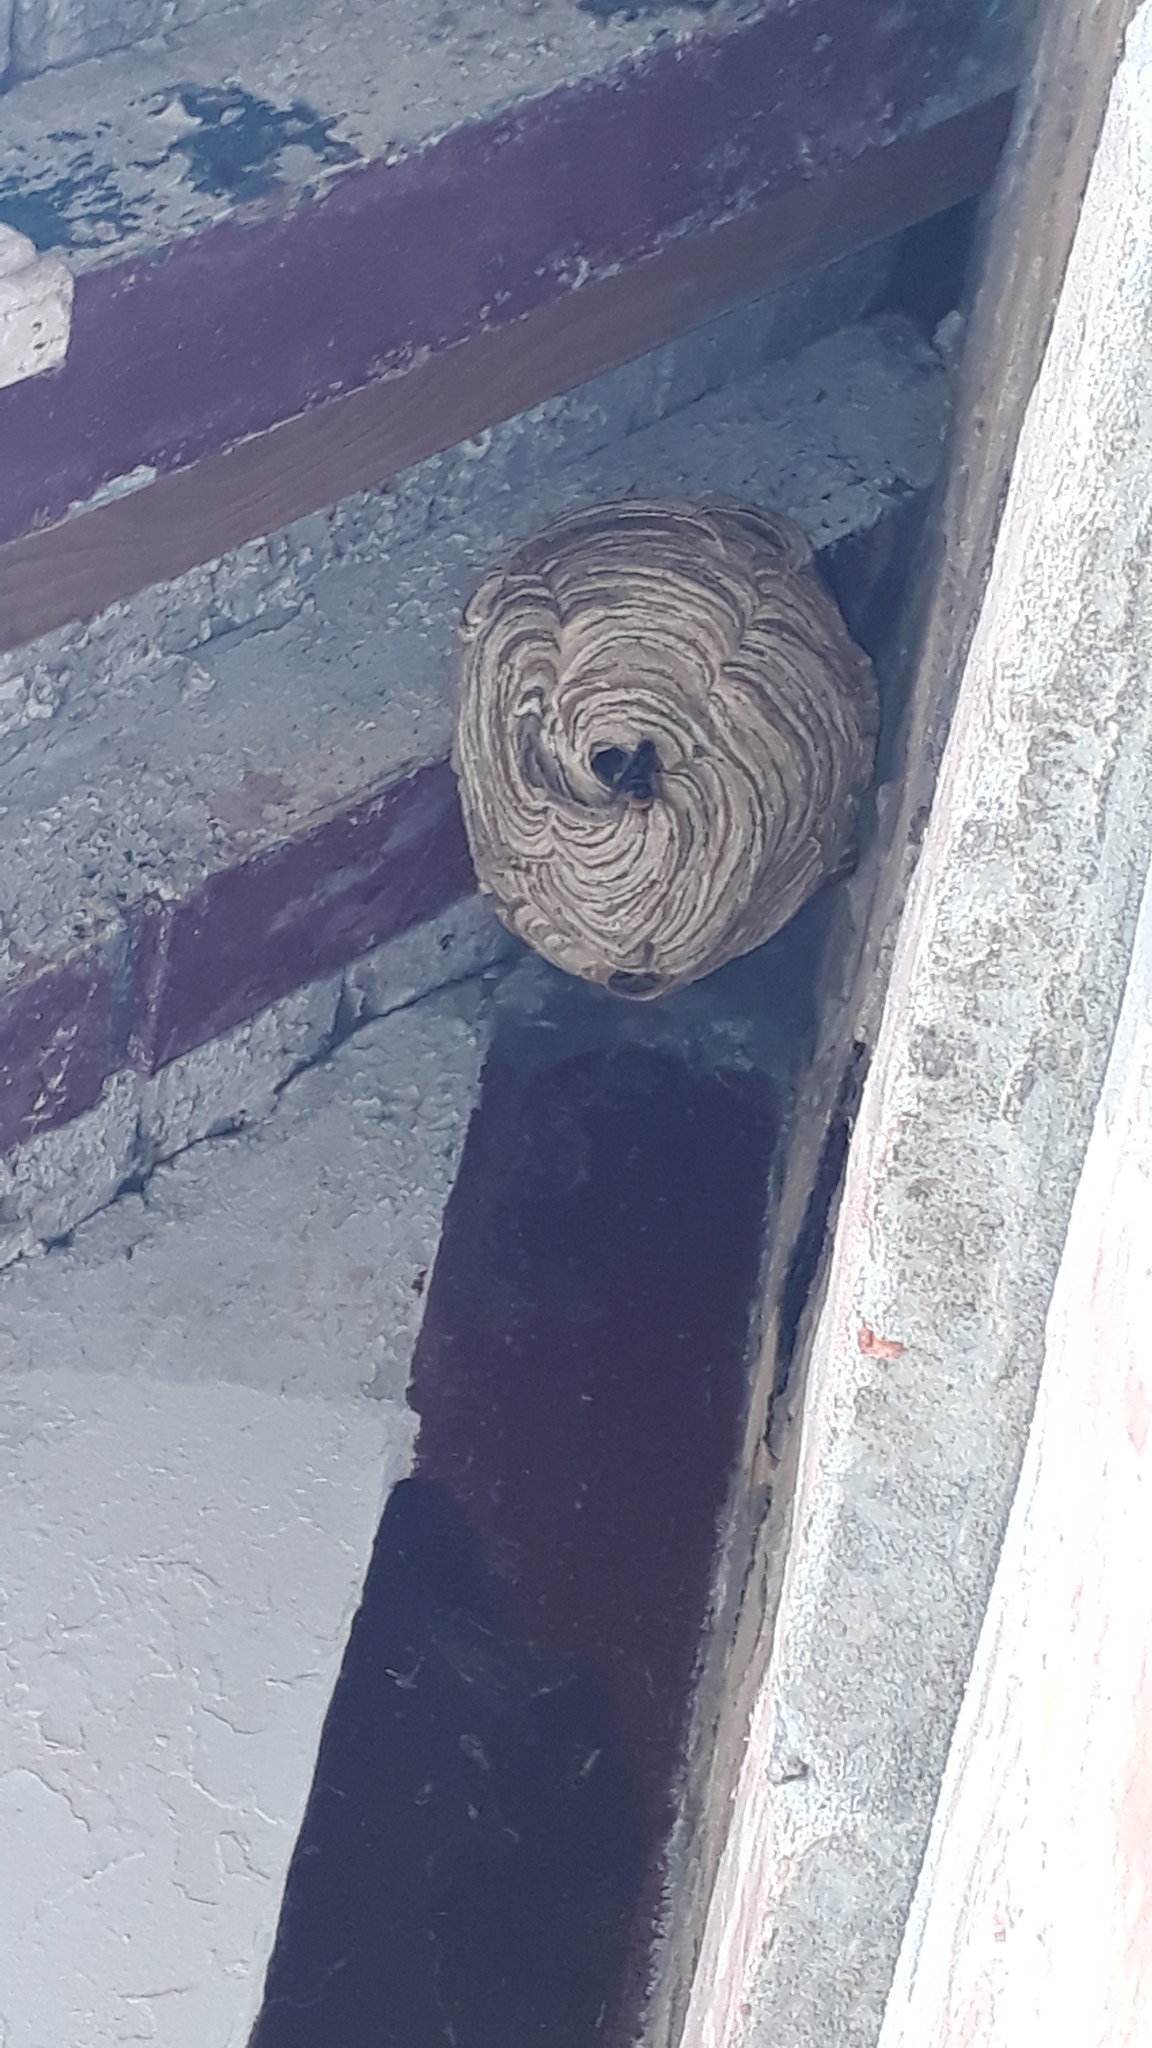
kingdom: Animalia
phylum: Arthropoda
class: Insecta
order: Hymenoptera
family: Vespidae
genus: Vespa
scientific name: Vespa velutina
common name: Asian hornet
